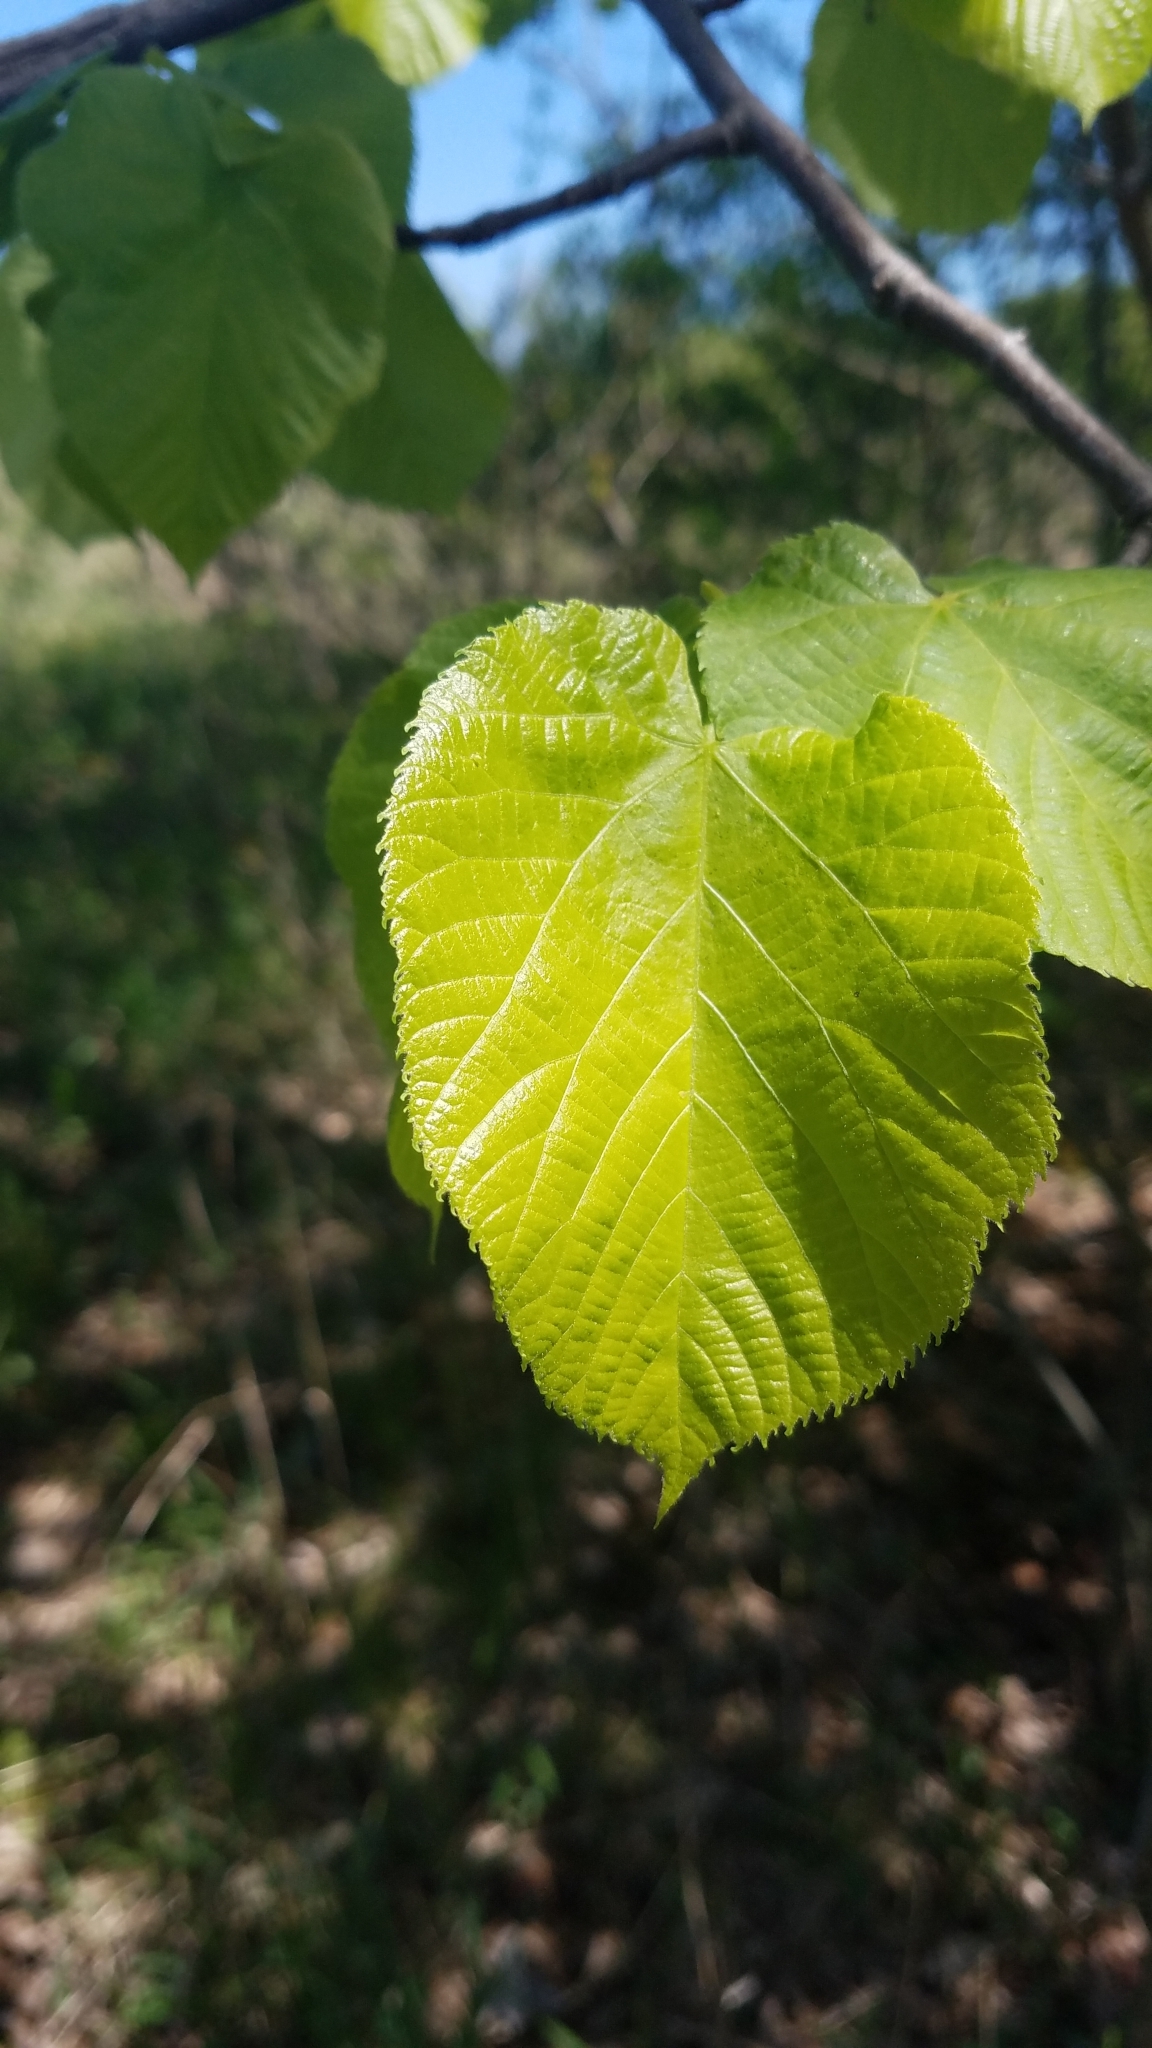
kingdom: Plantae
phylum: Tracheophyta
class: Magnoliopsida
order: Malvales
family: Malvaceae
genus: Tilia
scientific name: Tilia americana
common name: Basswood
